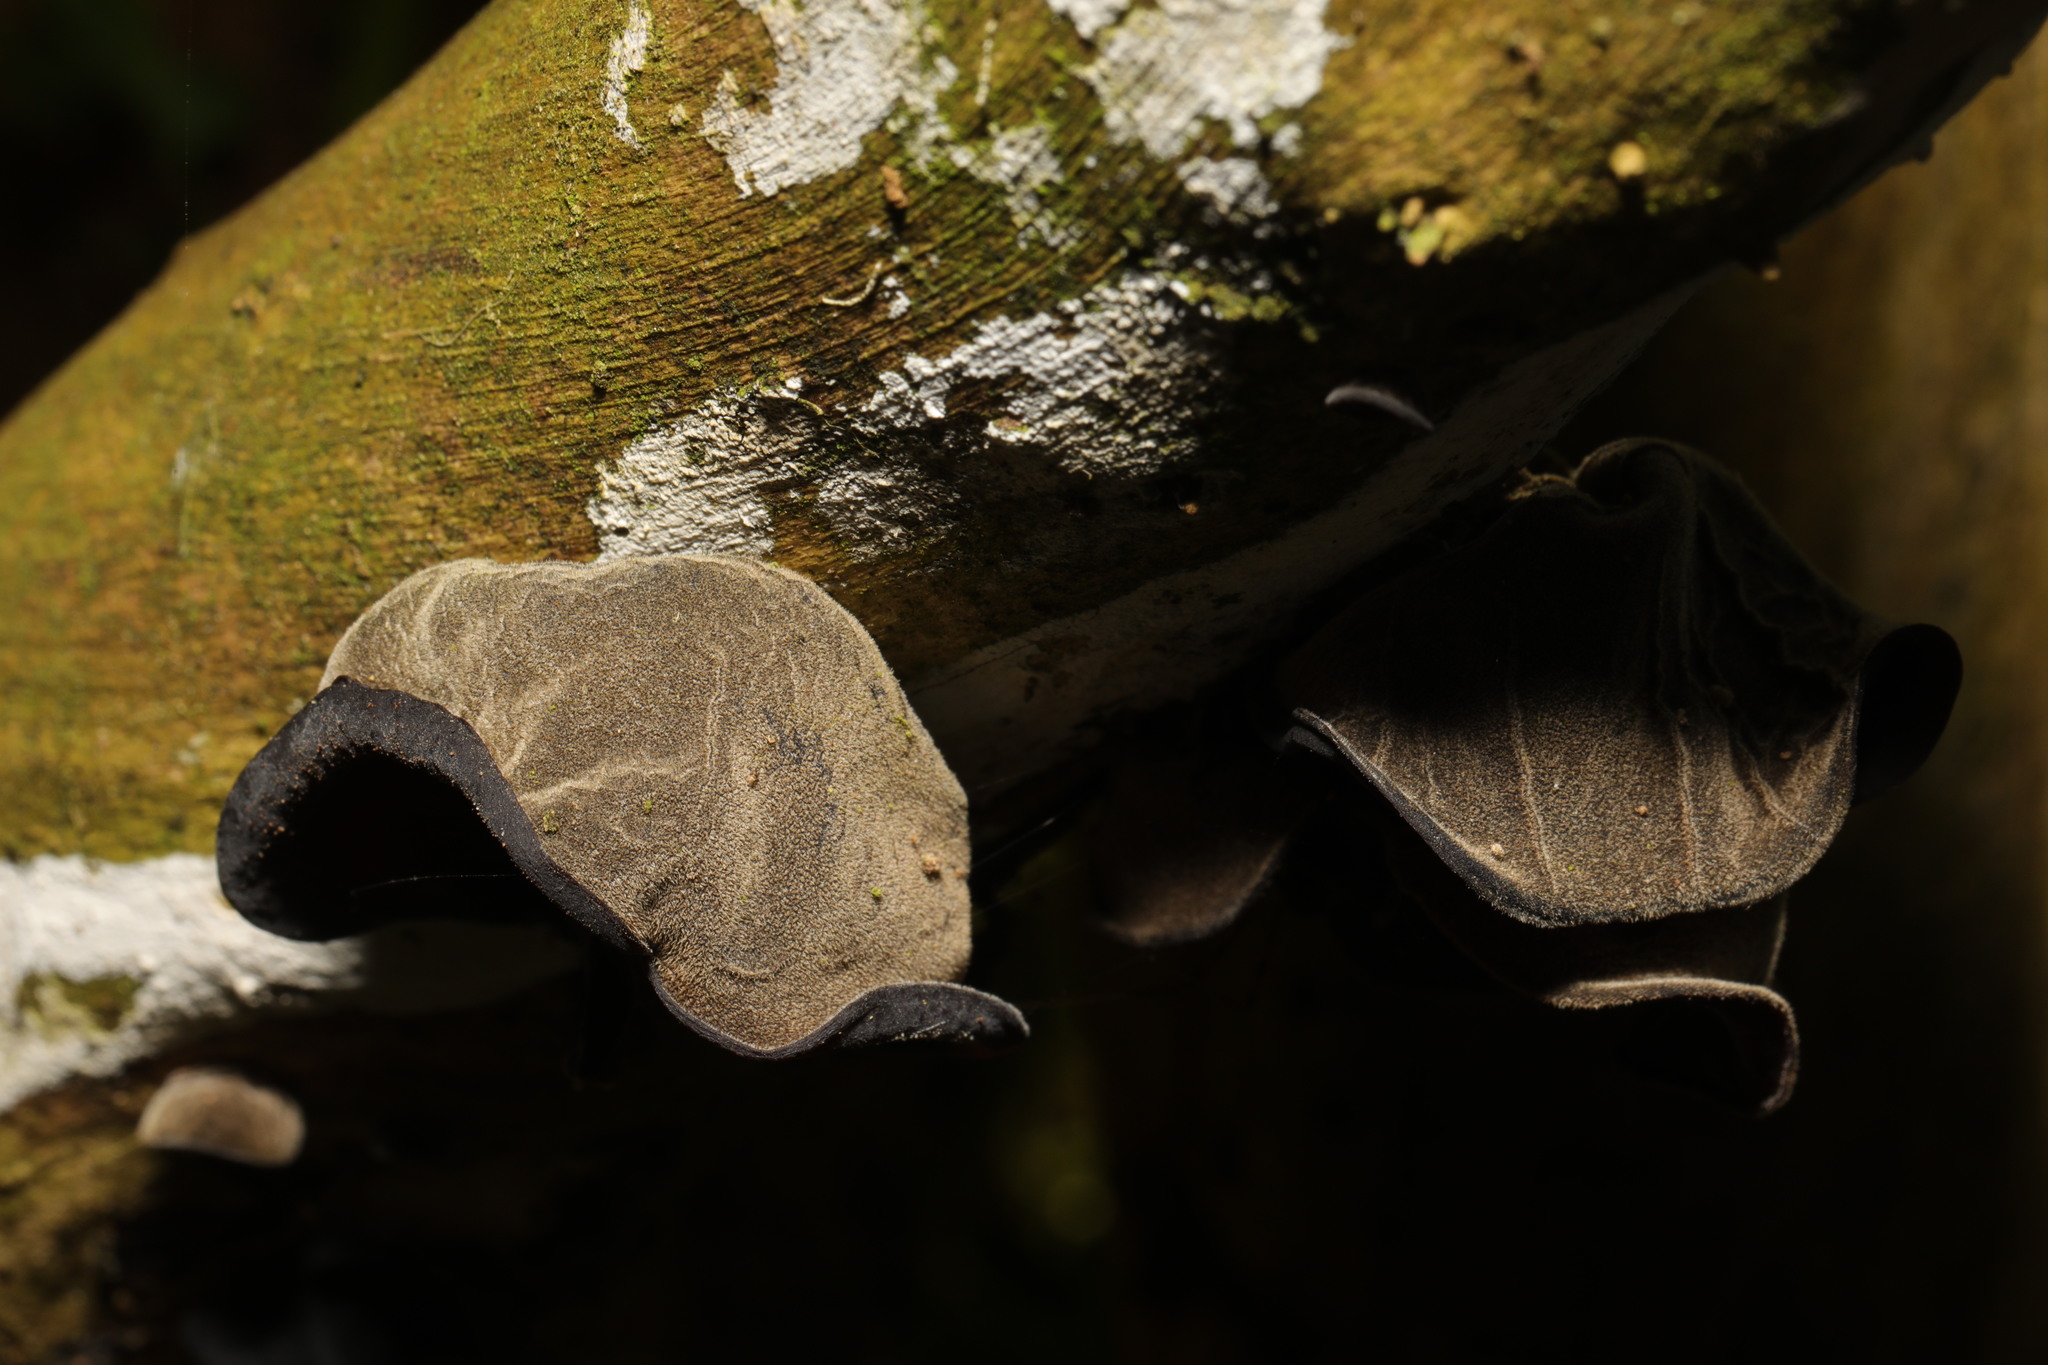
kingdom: Fungi
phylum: Basidiomycota
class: Agaricomycetes
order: Auriculariales
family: Auriculariaceae
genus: Auricularia
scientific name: Auricularia auricula-judae
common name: Jelly ear
